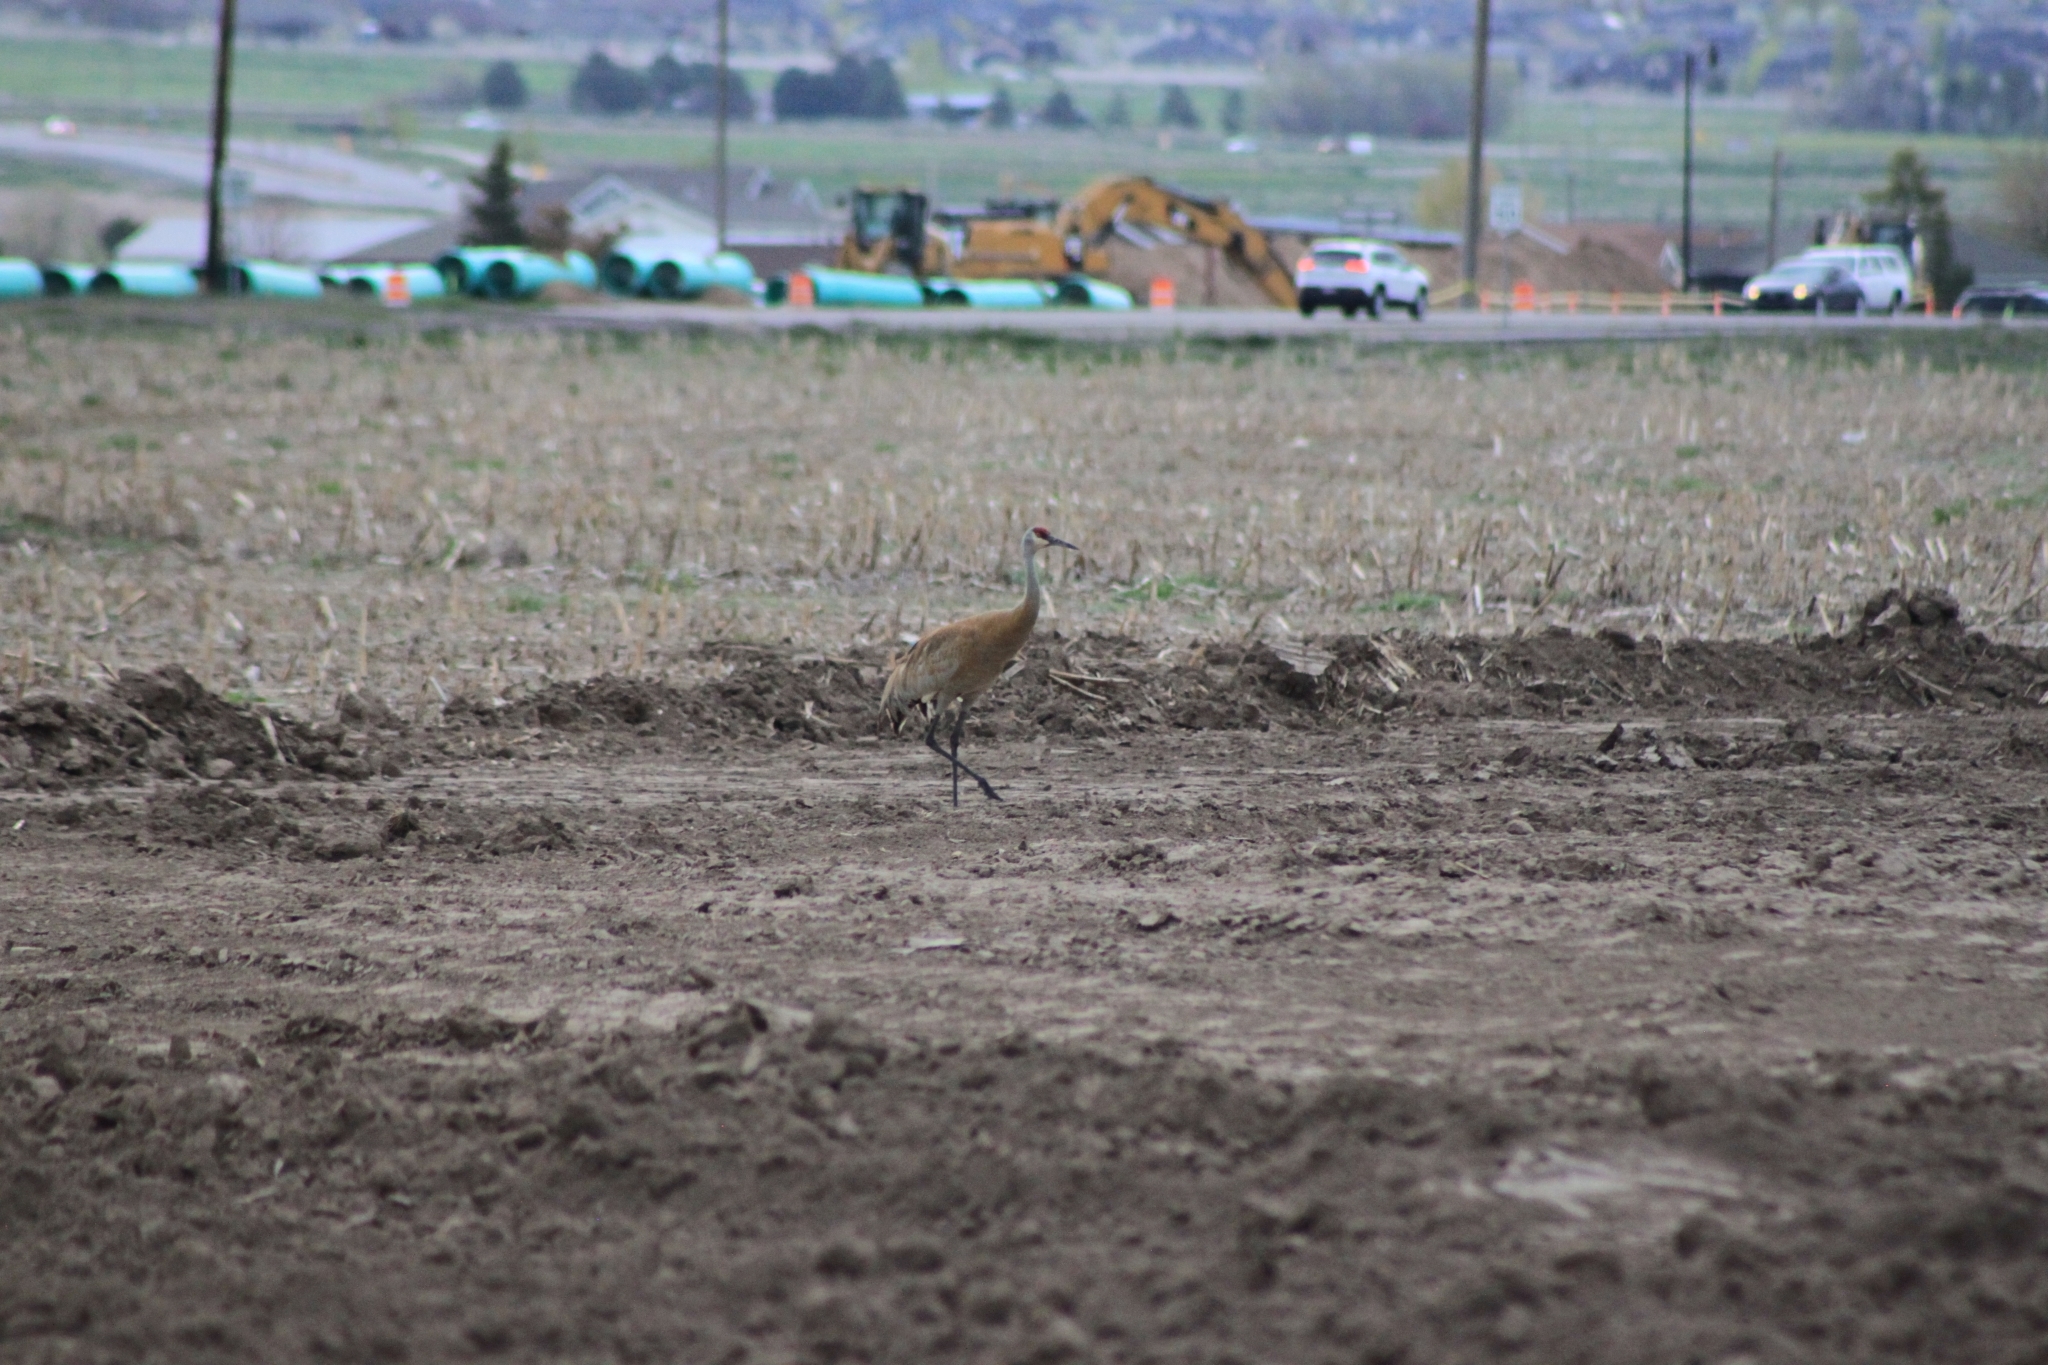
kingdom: Animalia
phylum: Chordata
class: Aves
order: Gruiformes
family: Gruidae
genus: Grus
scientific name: Grus canadensis
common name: Sandhill crane
